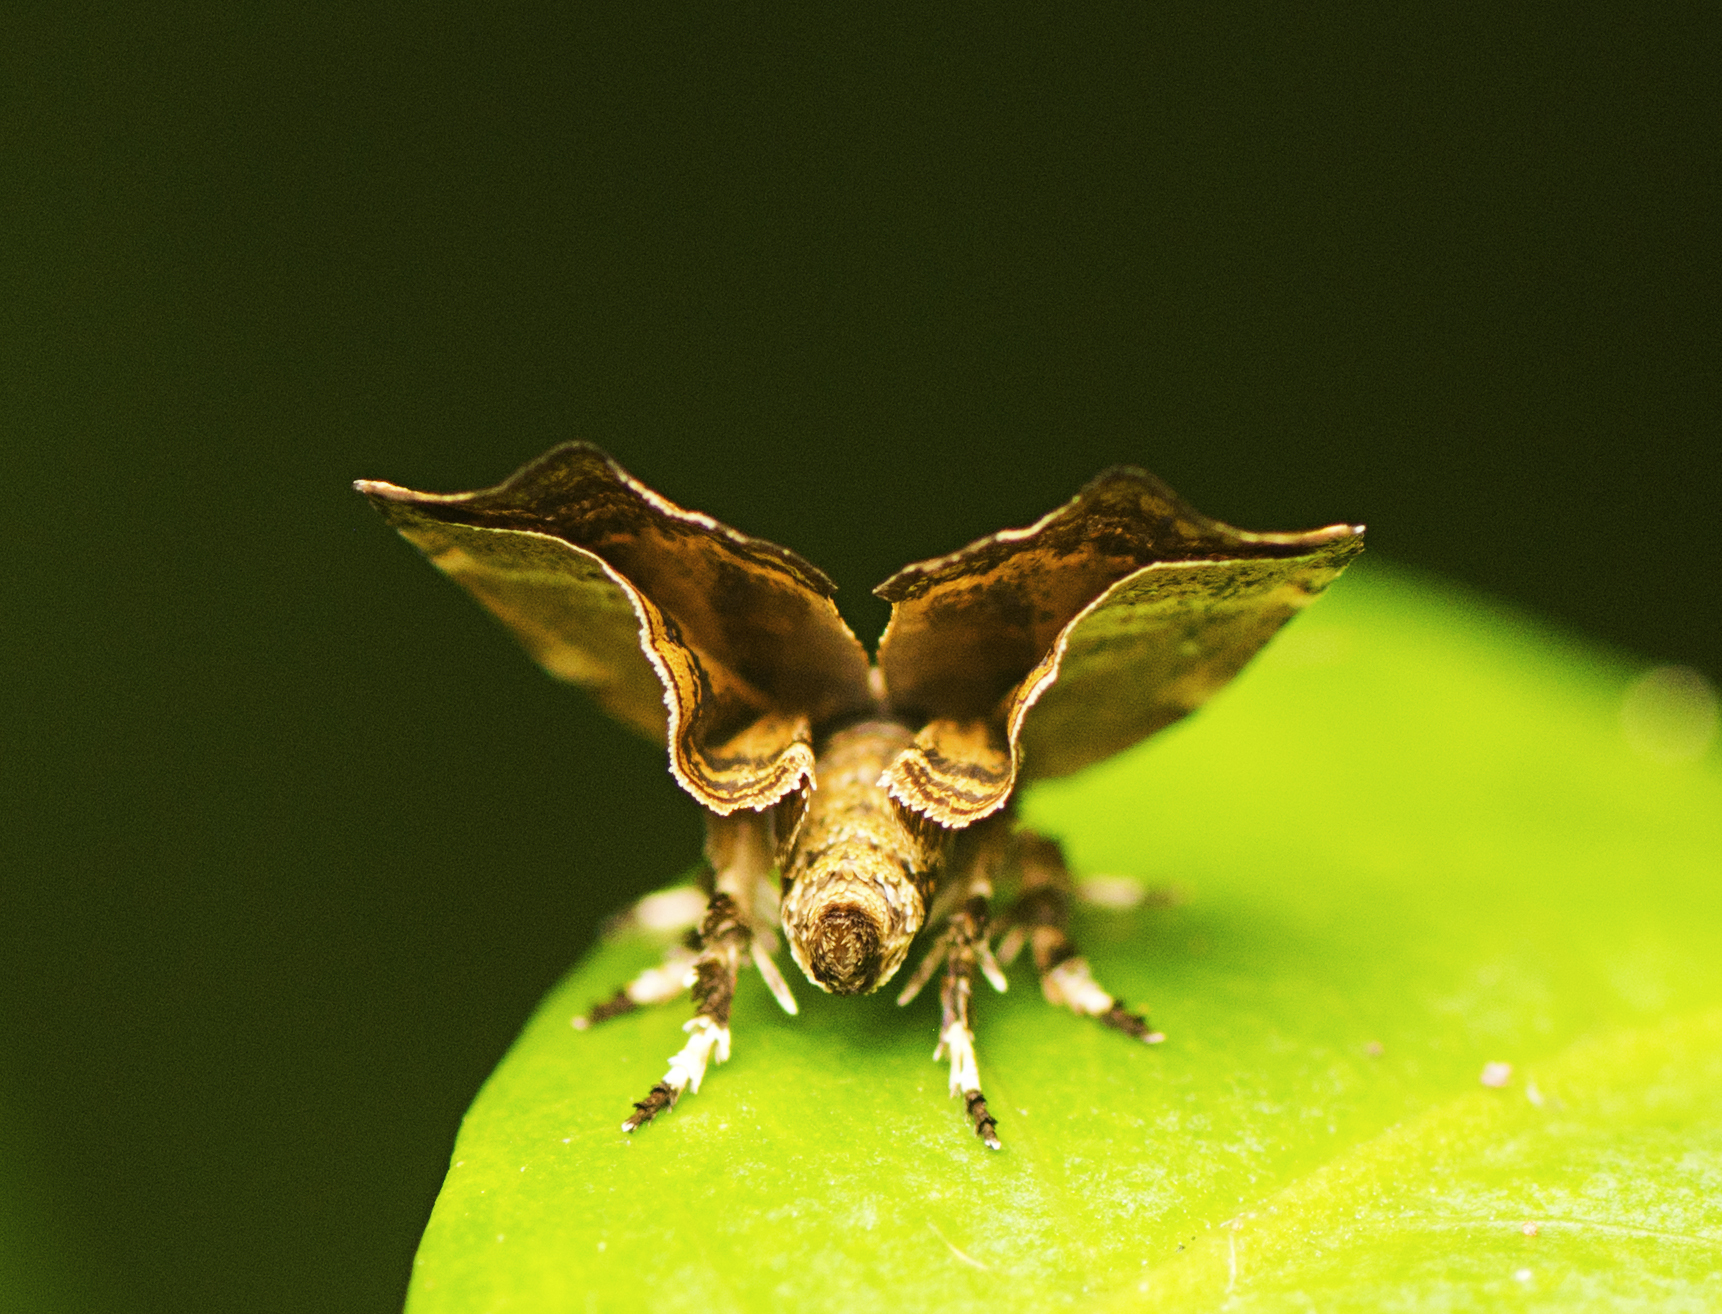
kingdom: Animalia
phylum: Arthropoda
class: Insecta
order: Lepidoptera
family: Choreutidae
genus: Choreutis
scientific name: Choreutis ophiosema
